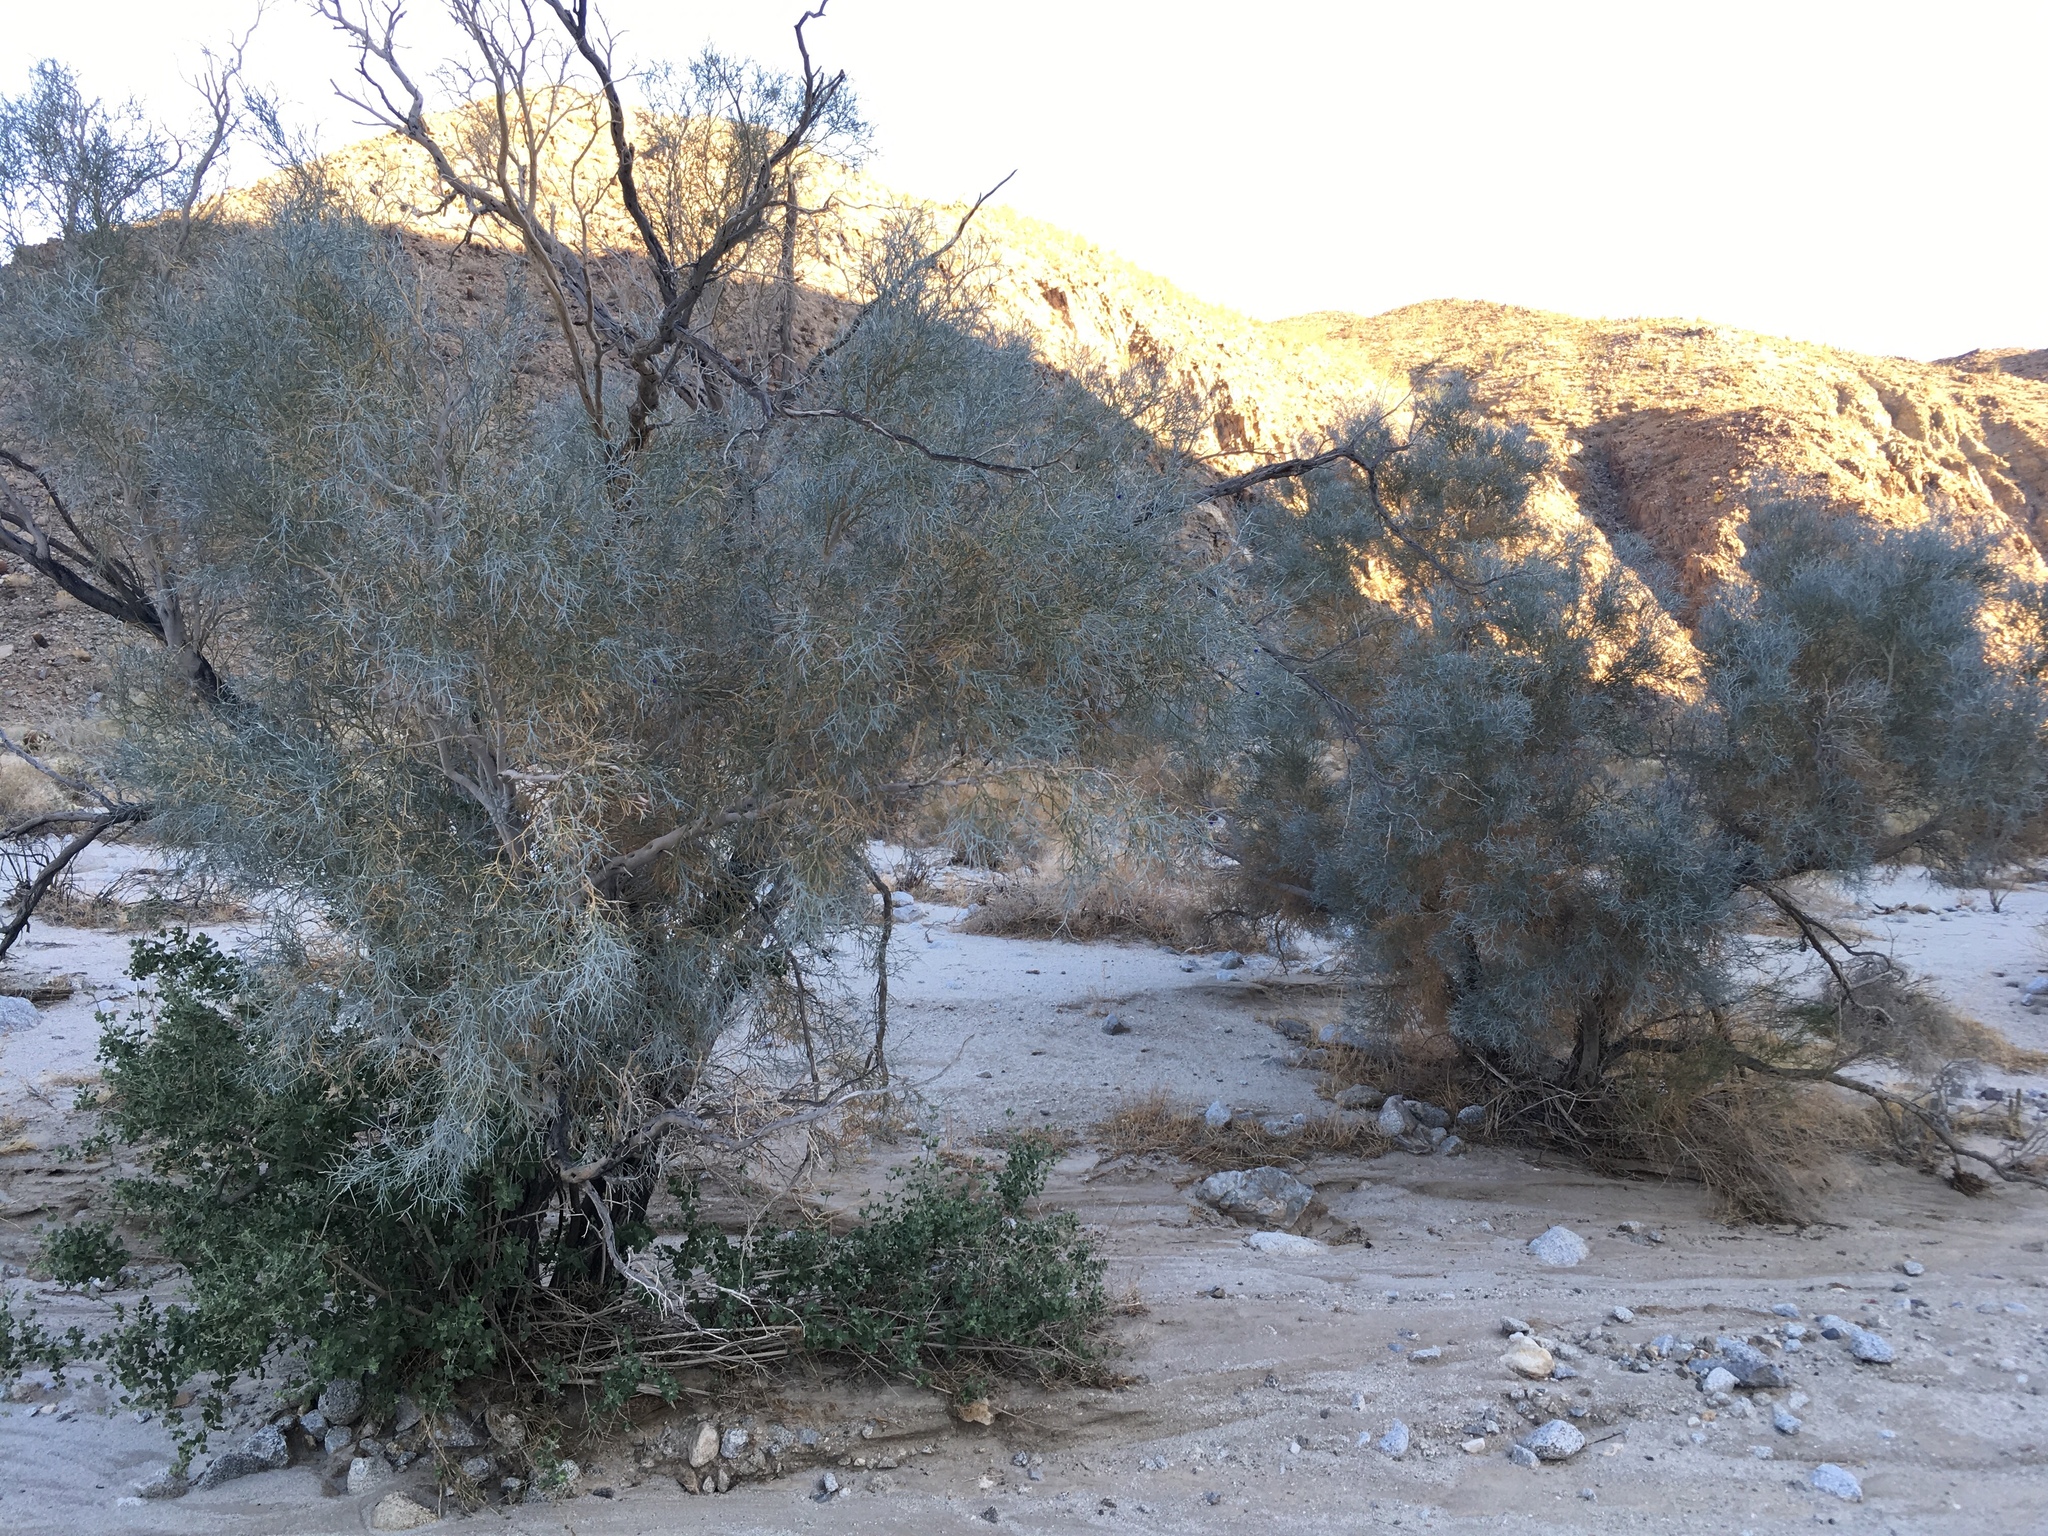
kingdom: Plantae
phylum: Tracheophyta
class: Magnoliopsida
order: Fabales
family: Fabaceae
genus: Psorothamnus
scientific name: Psorothamnus spinosus
